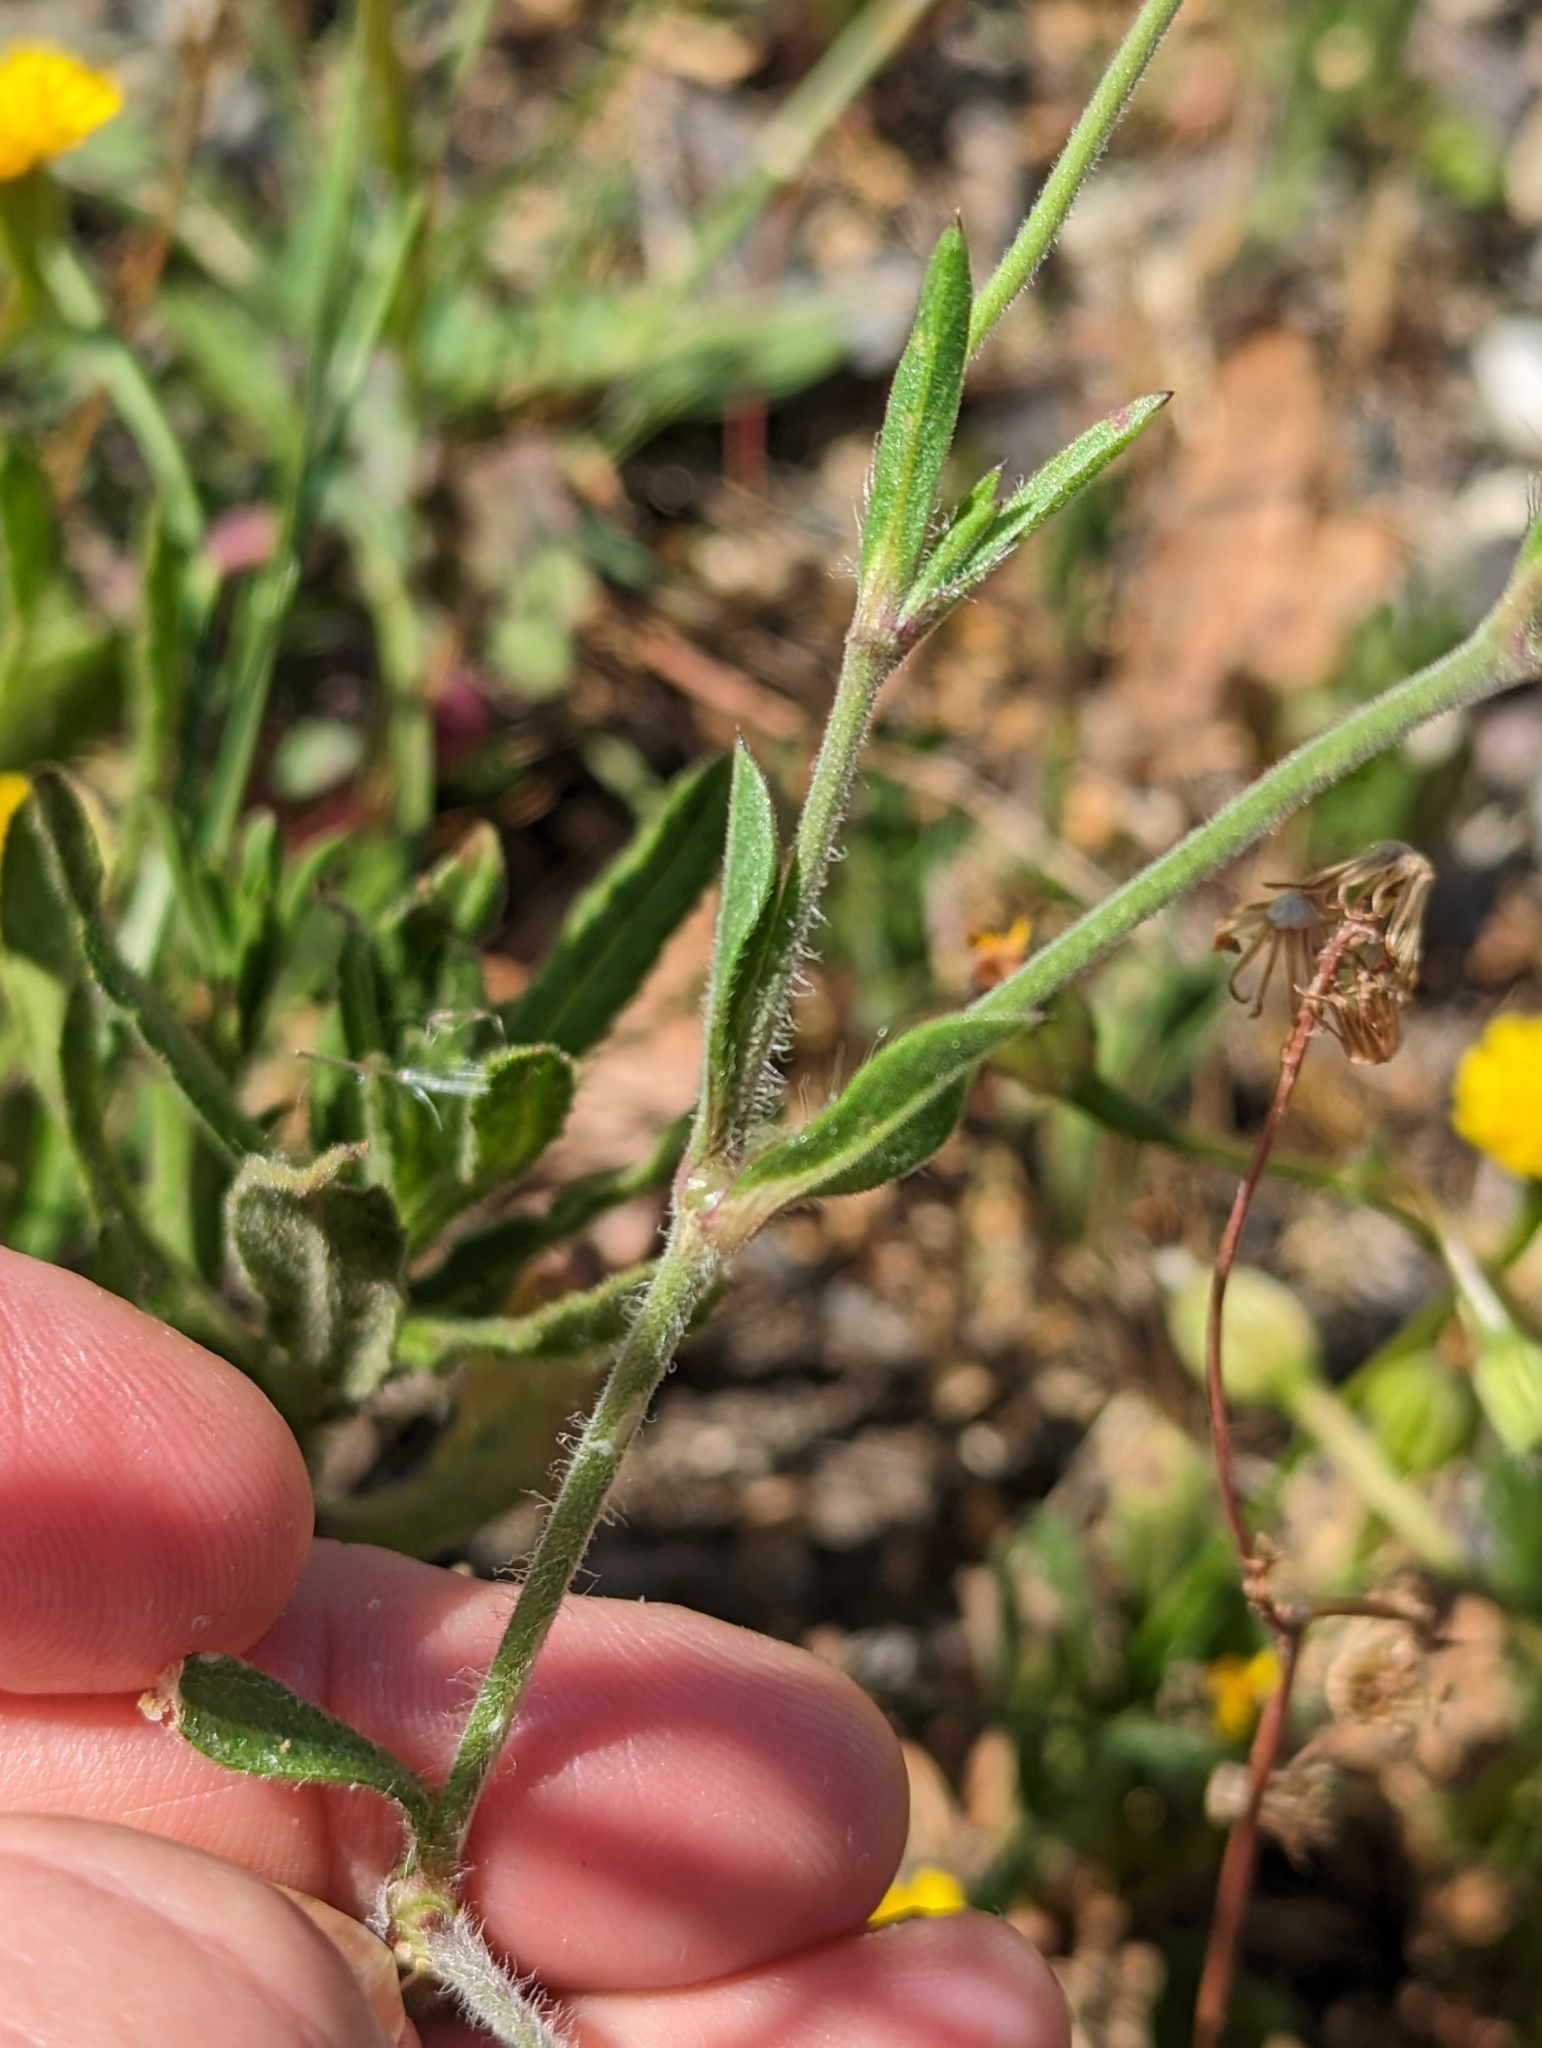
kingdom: Plantae
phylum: Tracheophyta
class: Magnoliopsida
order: Caryophyllales
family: Caryophyllaceae
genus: Silene
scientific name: Silene gallica
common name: Small-flowered catchfly
